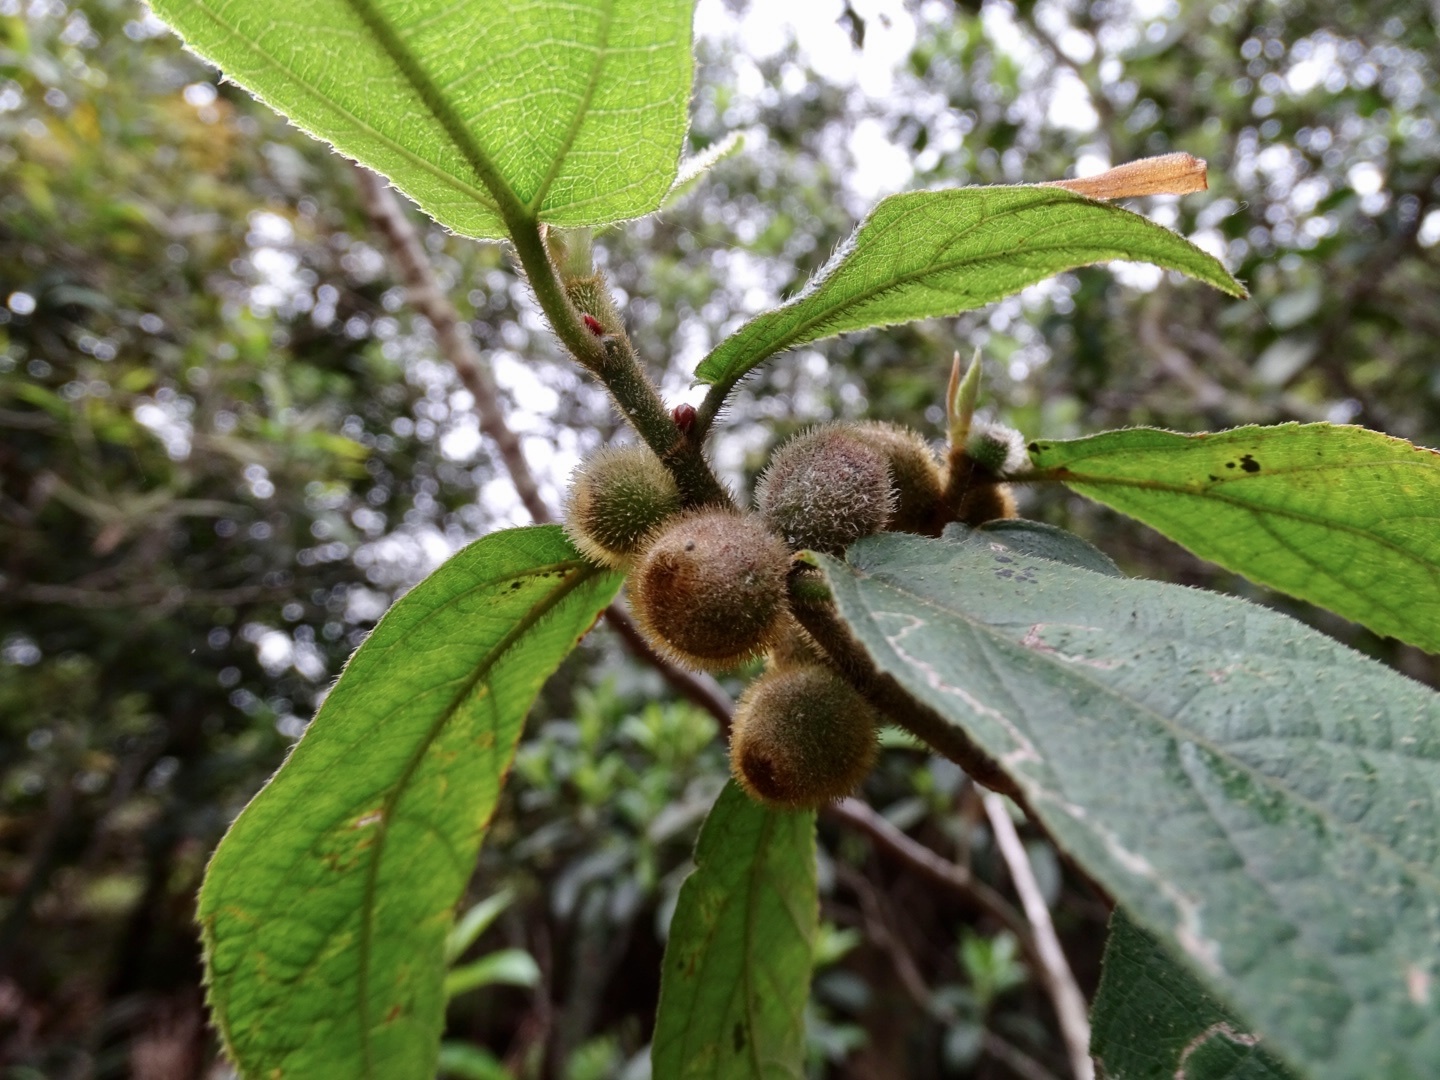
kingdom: Plantae
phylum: Tracheophyta
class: Magnoliopsida
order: Rosales
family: Moraceae
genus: Ficus
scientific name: Ficus simplicissima
